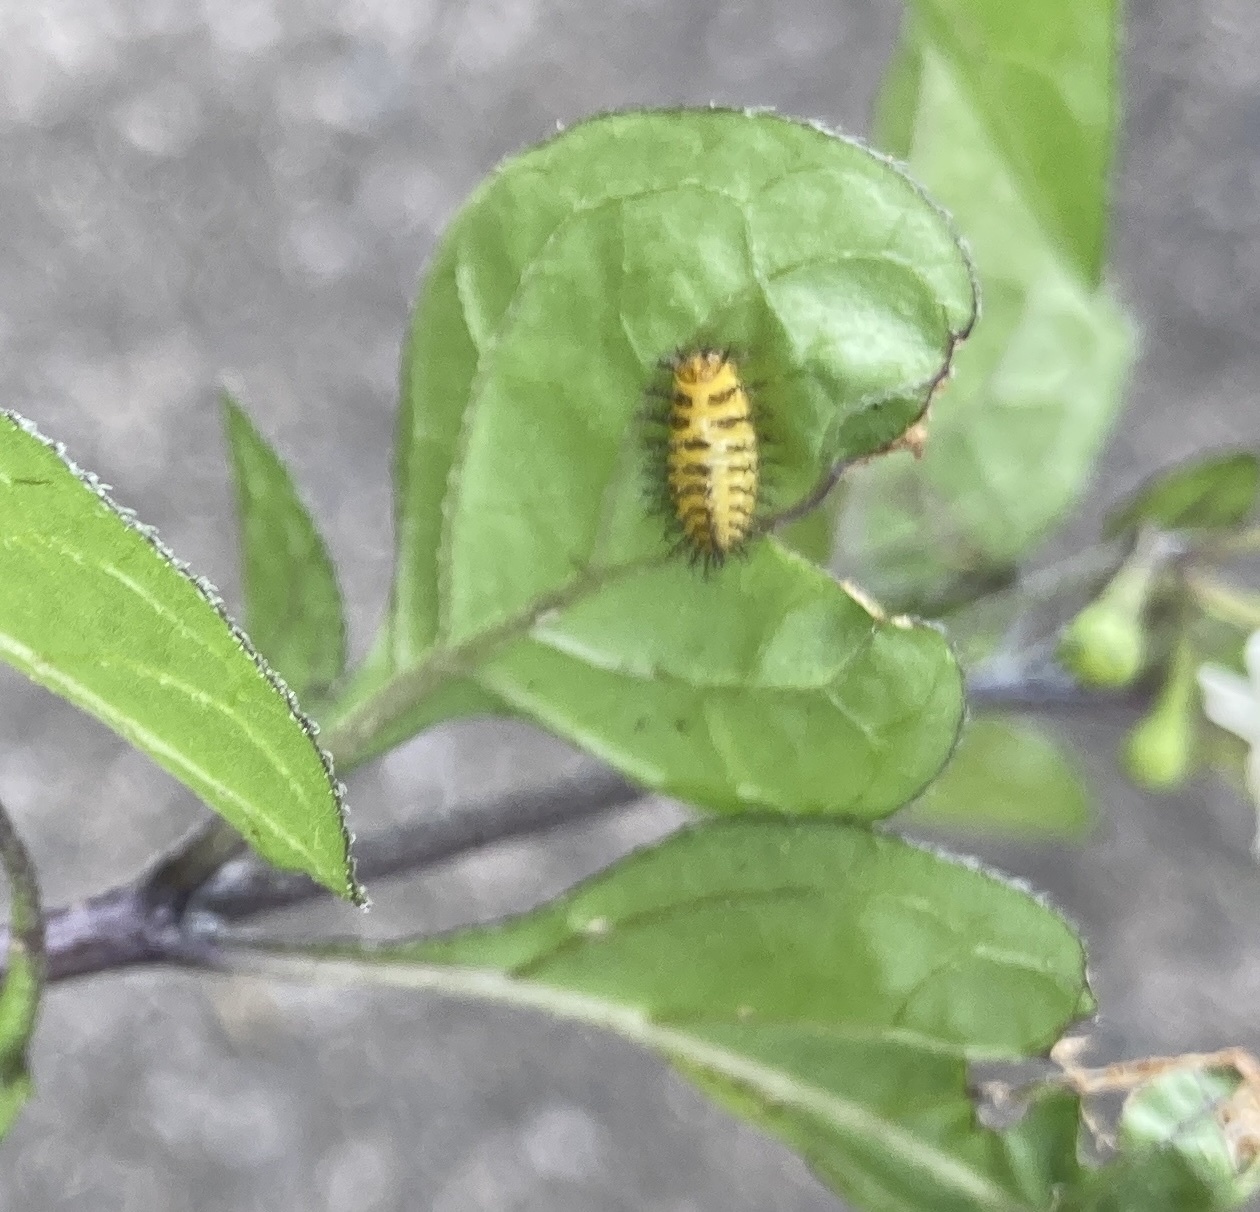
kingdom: Animalia
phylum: Arthropoda
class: Insecta
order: Coleoptera
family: Coccinellidae
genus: Henosepilachna
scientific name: Henosepilachna vigintioctopunctata
